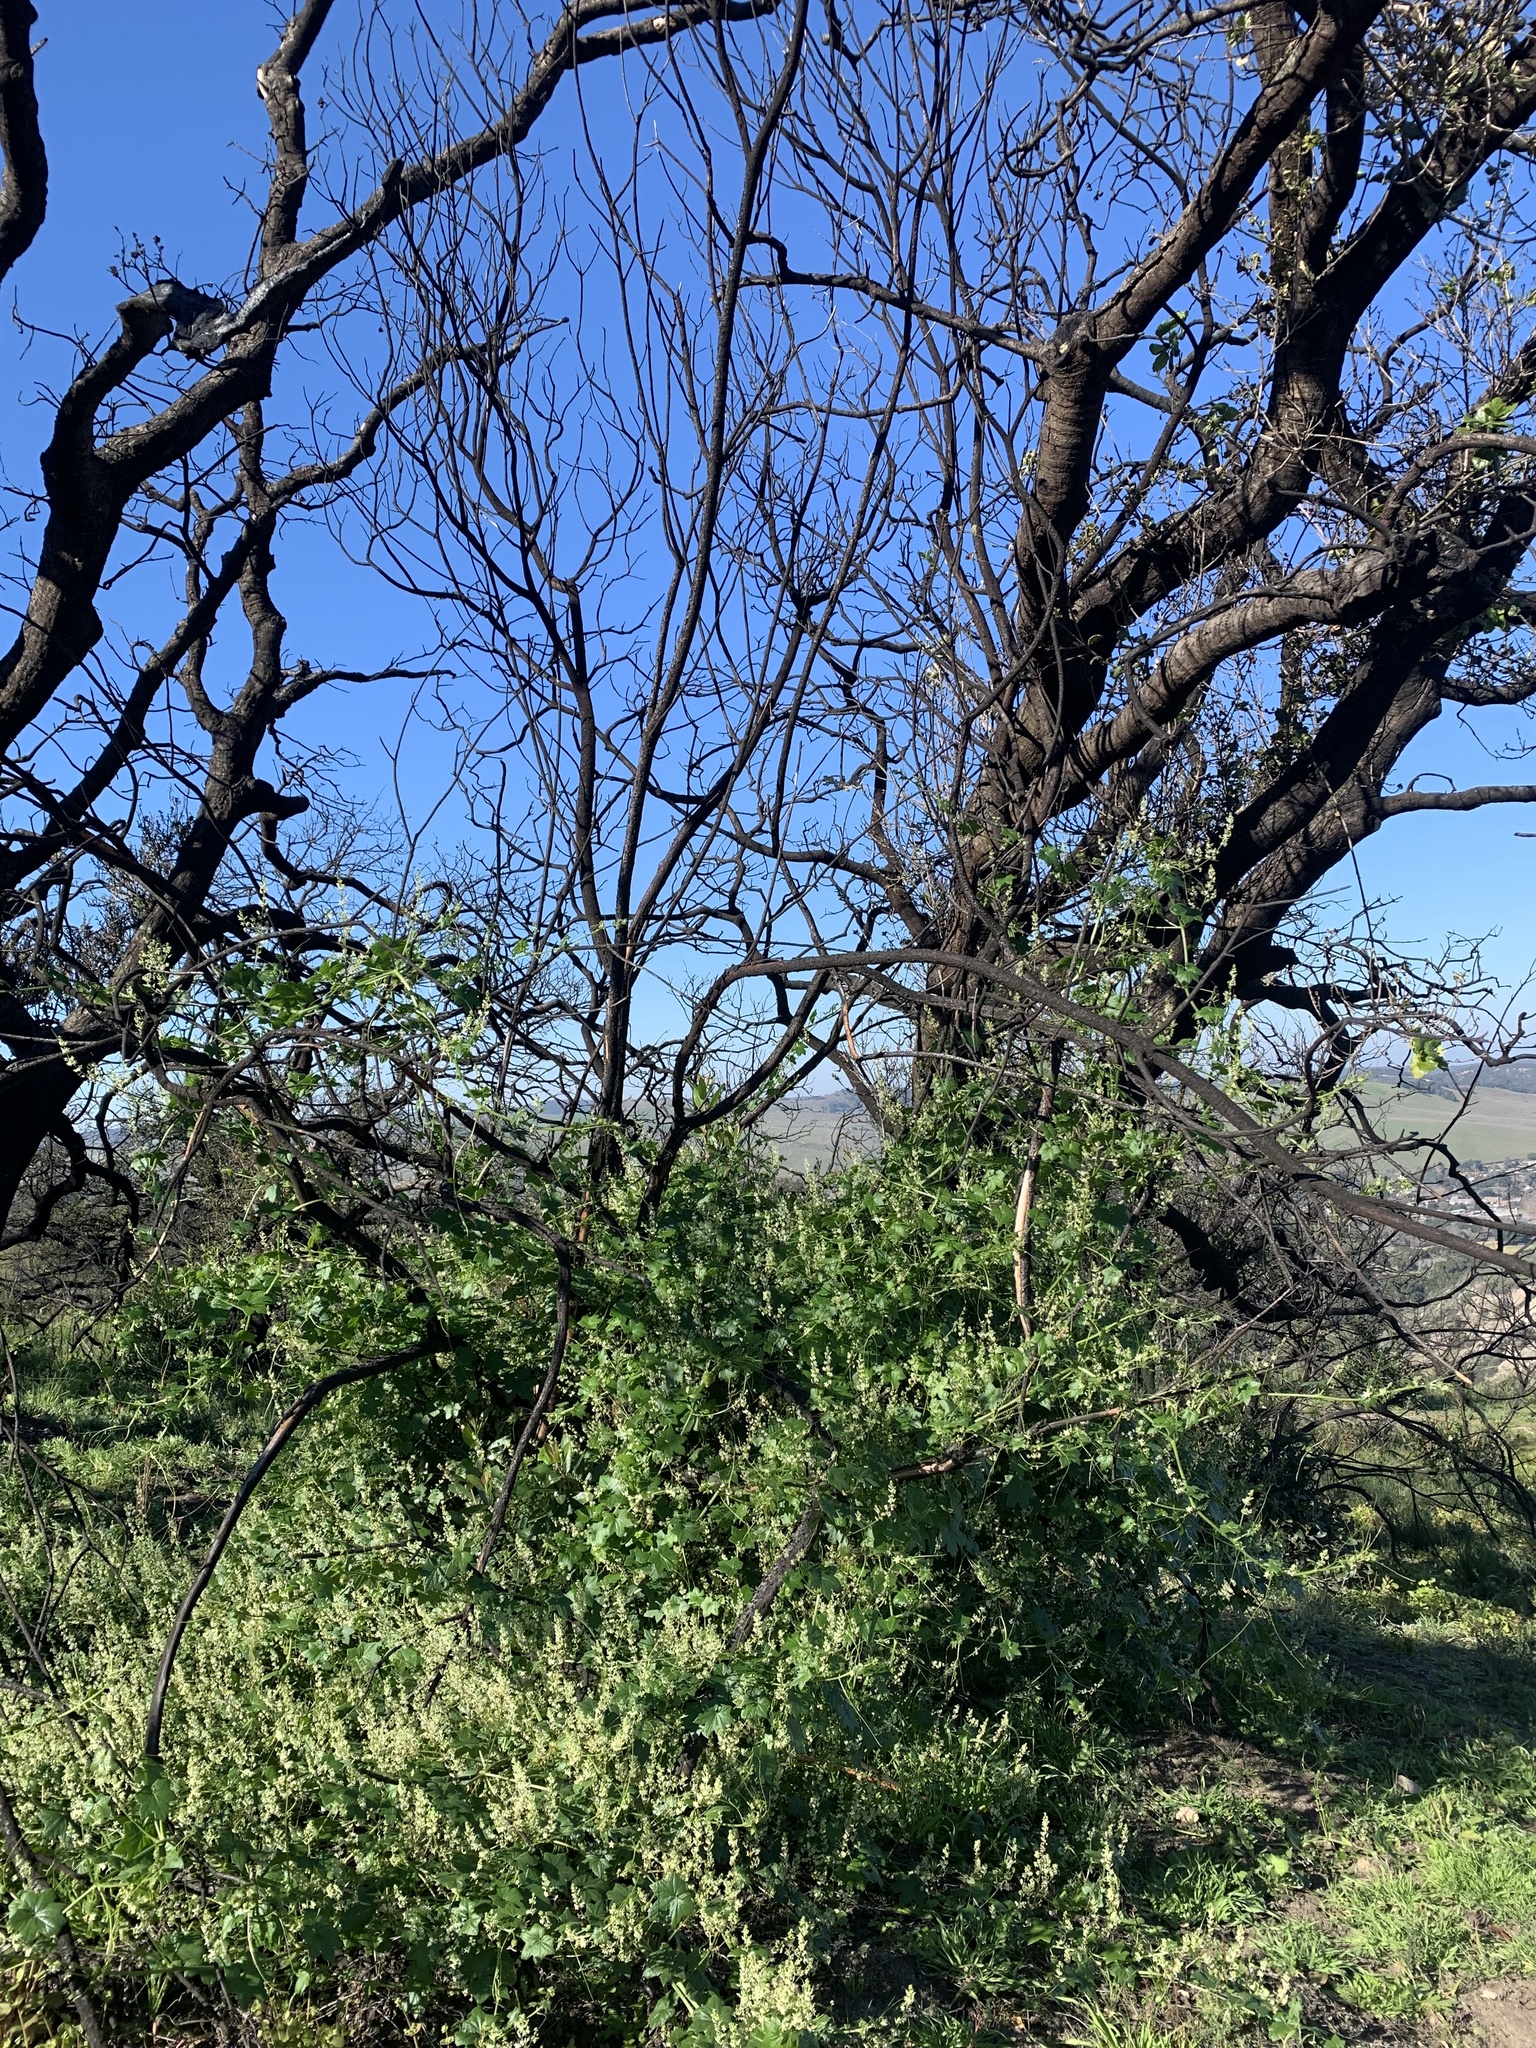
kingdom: Plantae
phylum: Tracheophyta
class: Magnoliopsida
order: Cucurbitales
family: Cucurbitaceae
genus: Marah
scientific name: Marah fabacea
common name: California manroot
